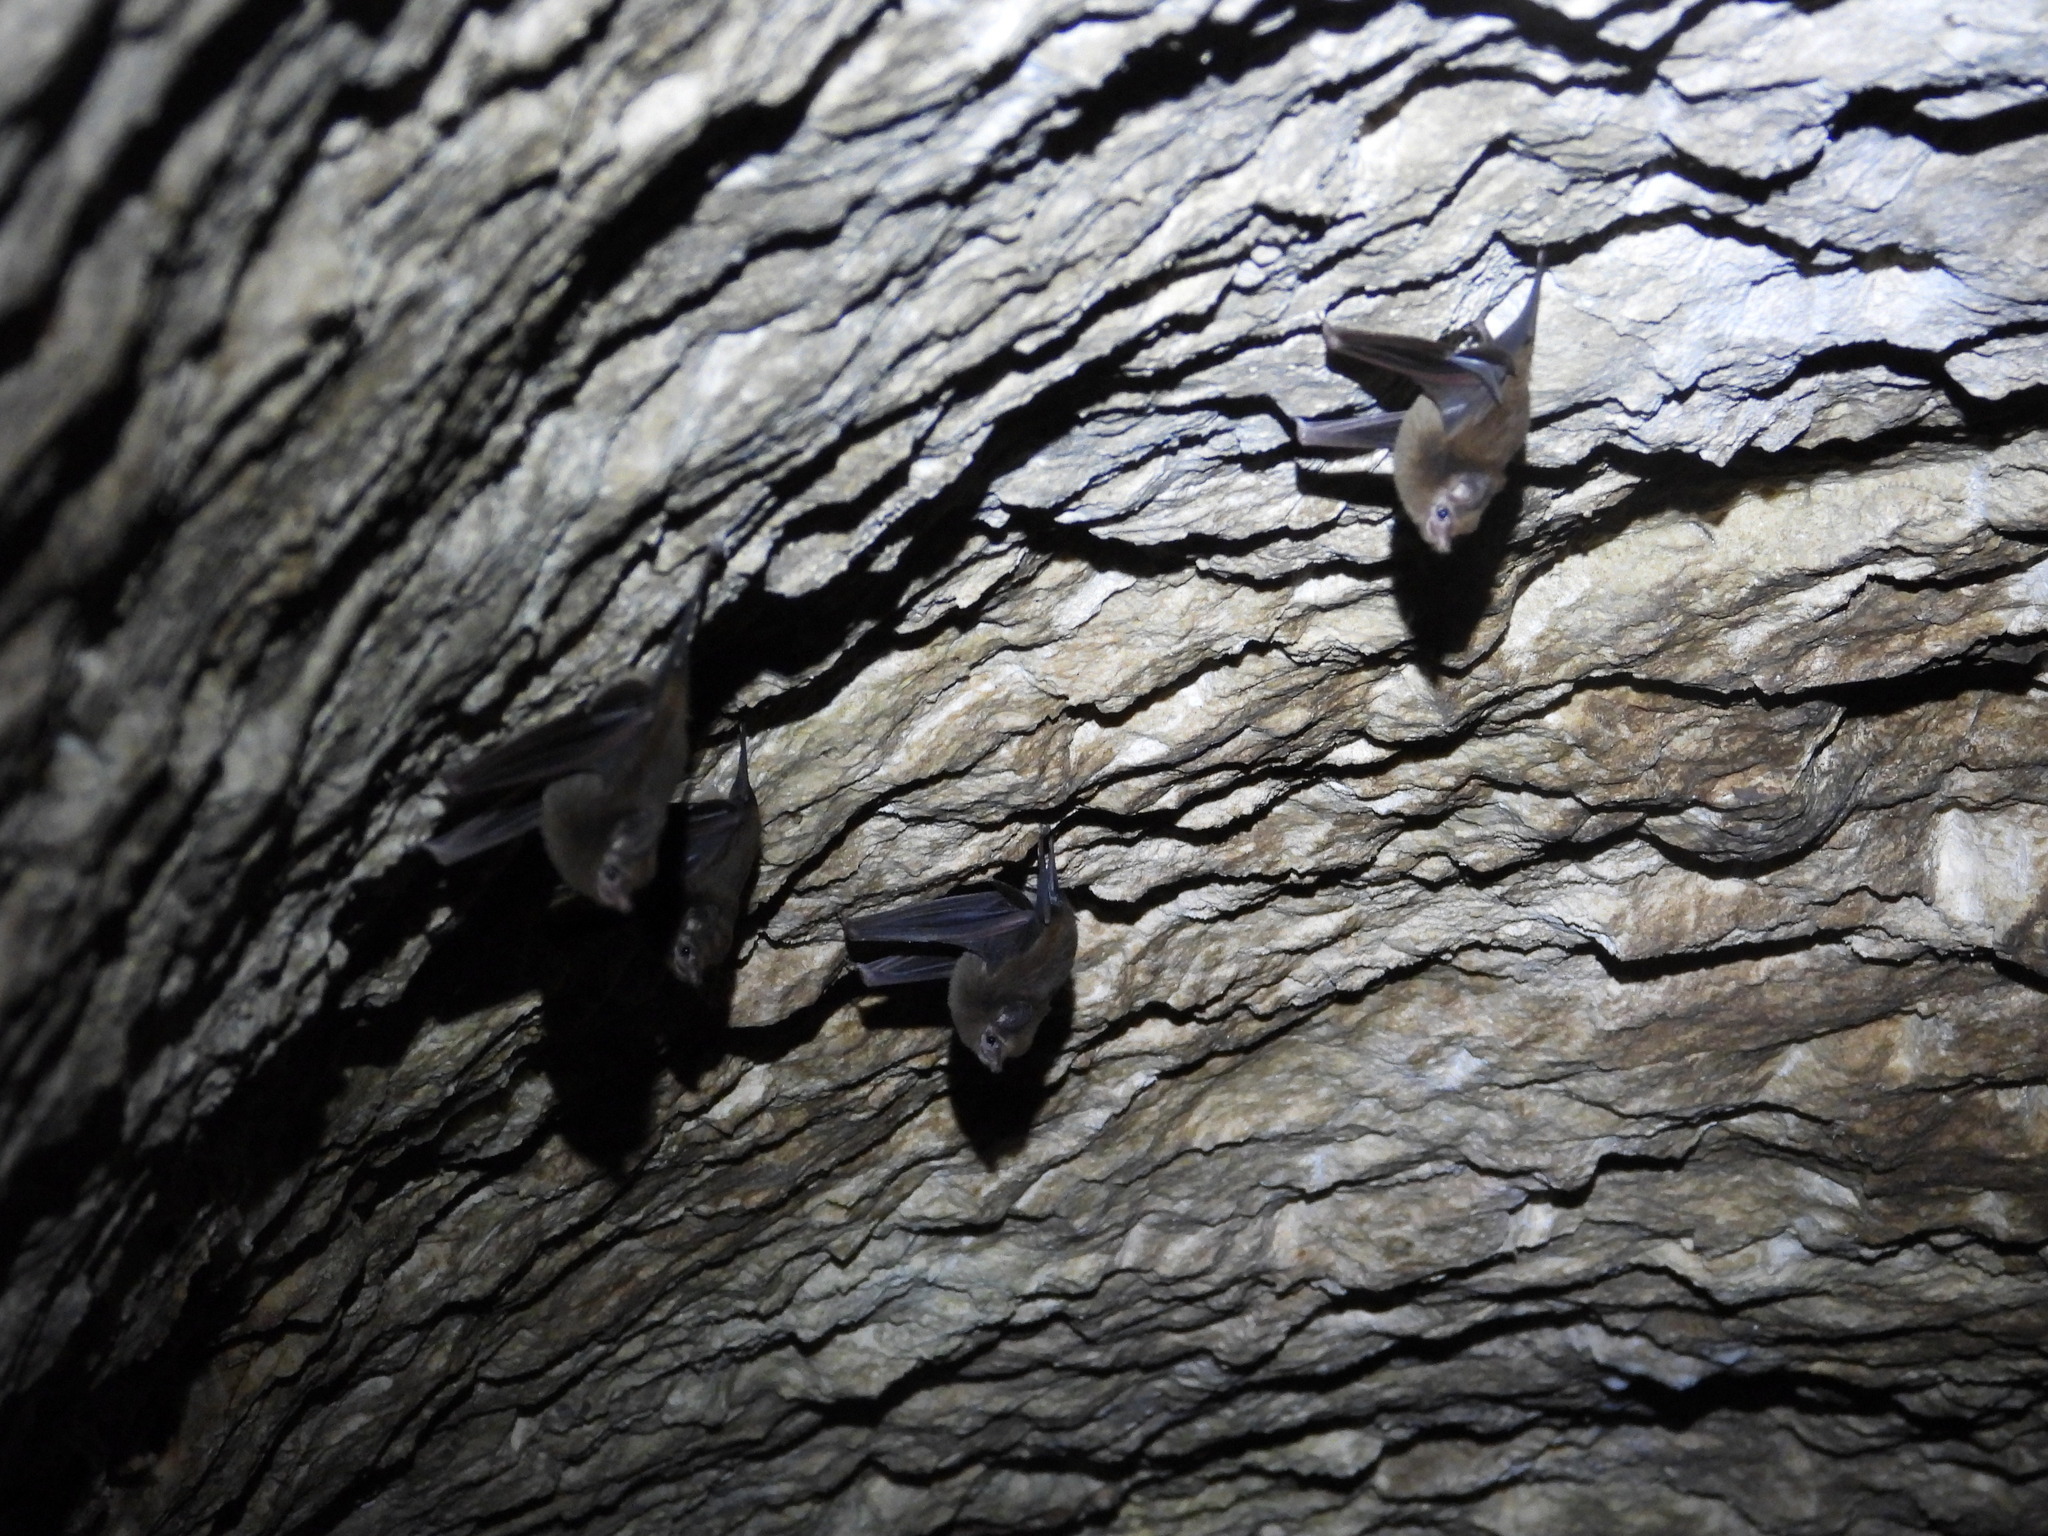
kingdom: Animalia
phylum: Chordata
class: Mammalia
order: Chiroptera
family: Emballonuridae
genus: Peropteryx
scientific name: Peropteryx macrotis
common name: Lesser dog-like bat
